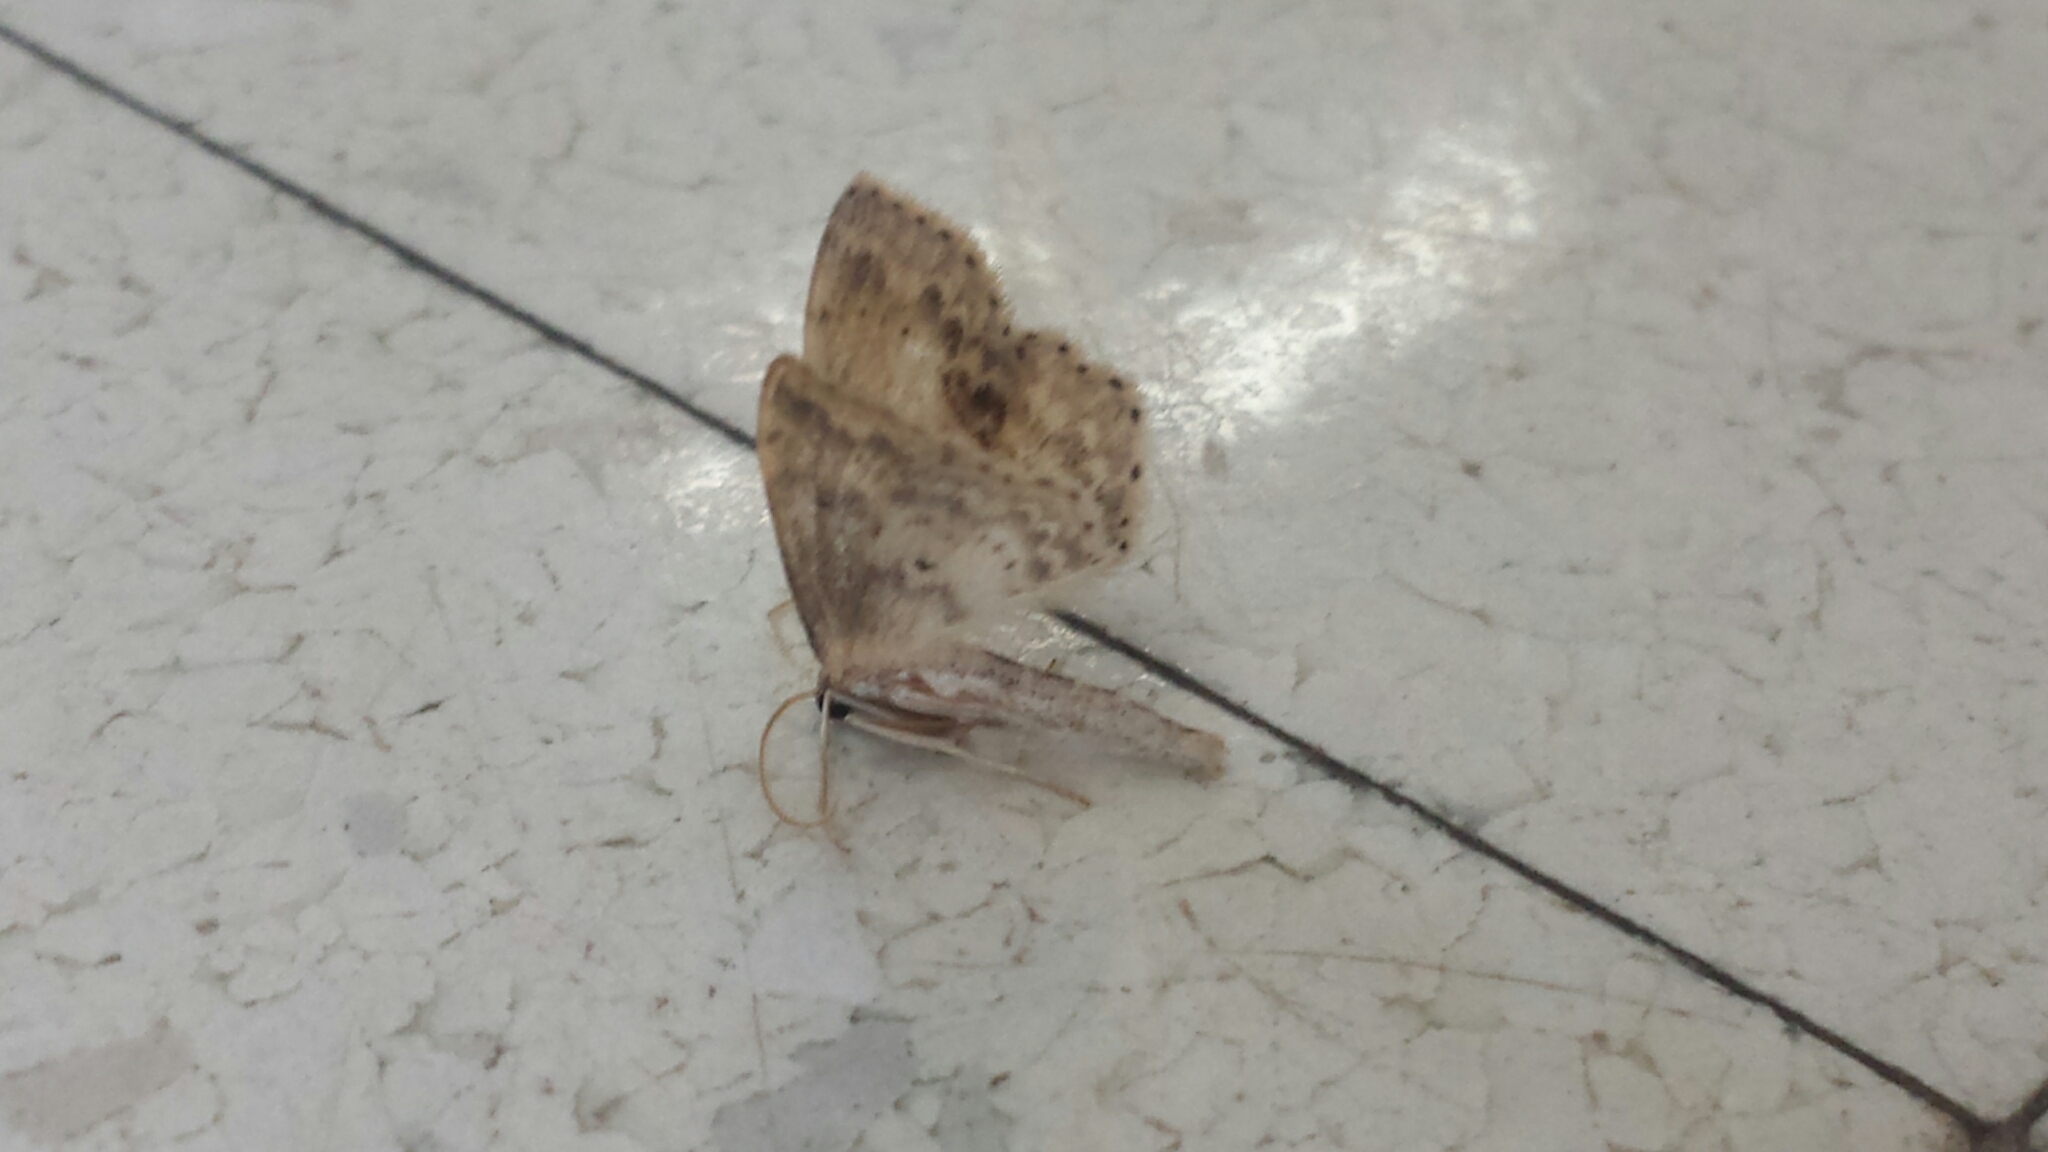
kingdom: Animalia
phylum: Arthropoda
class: Insecta
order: Lepidoptera
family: Geometridae
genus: Idaea
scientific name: Idaea dimidiata
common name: Single-dotted wave
